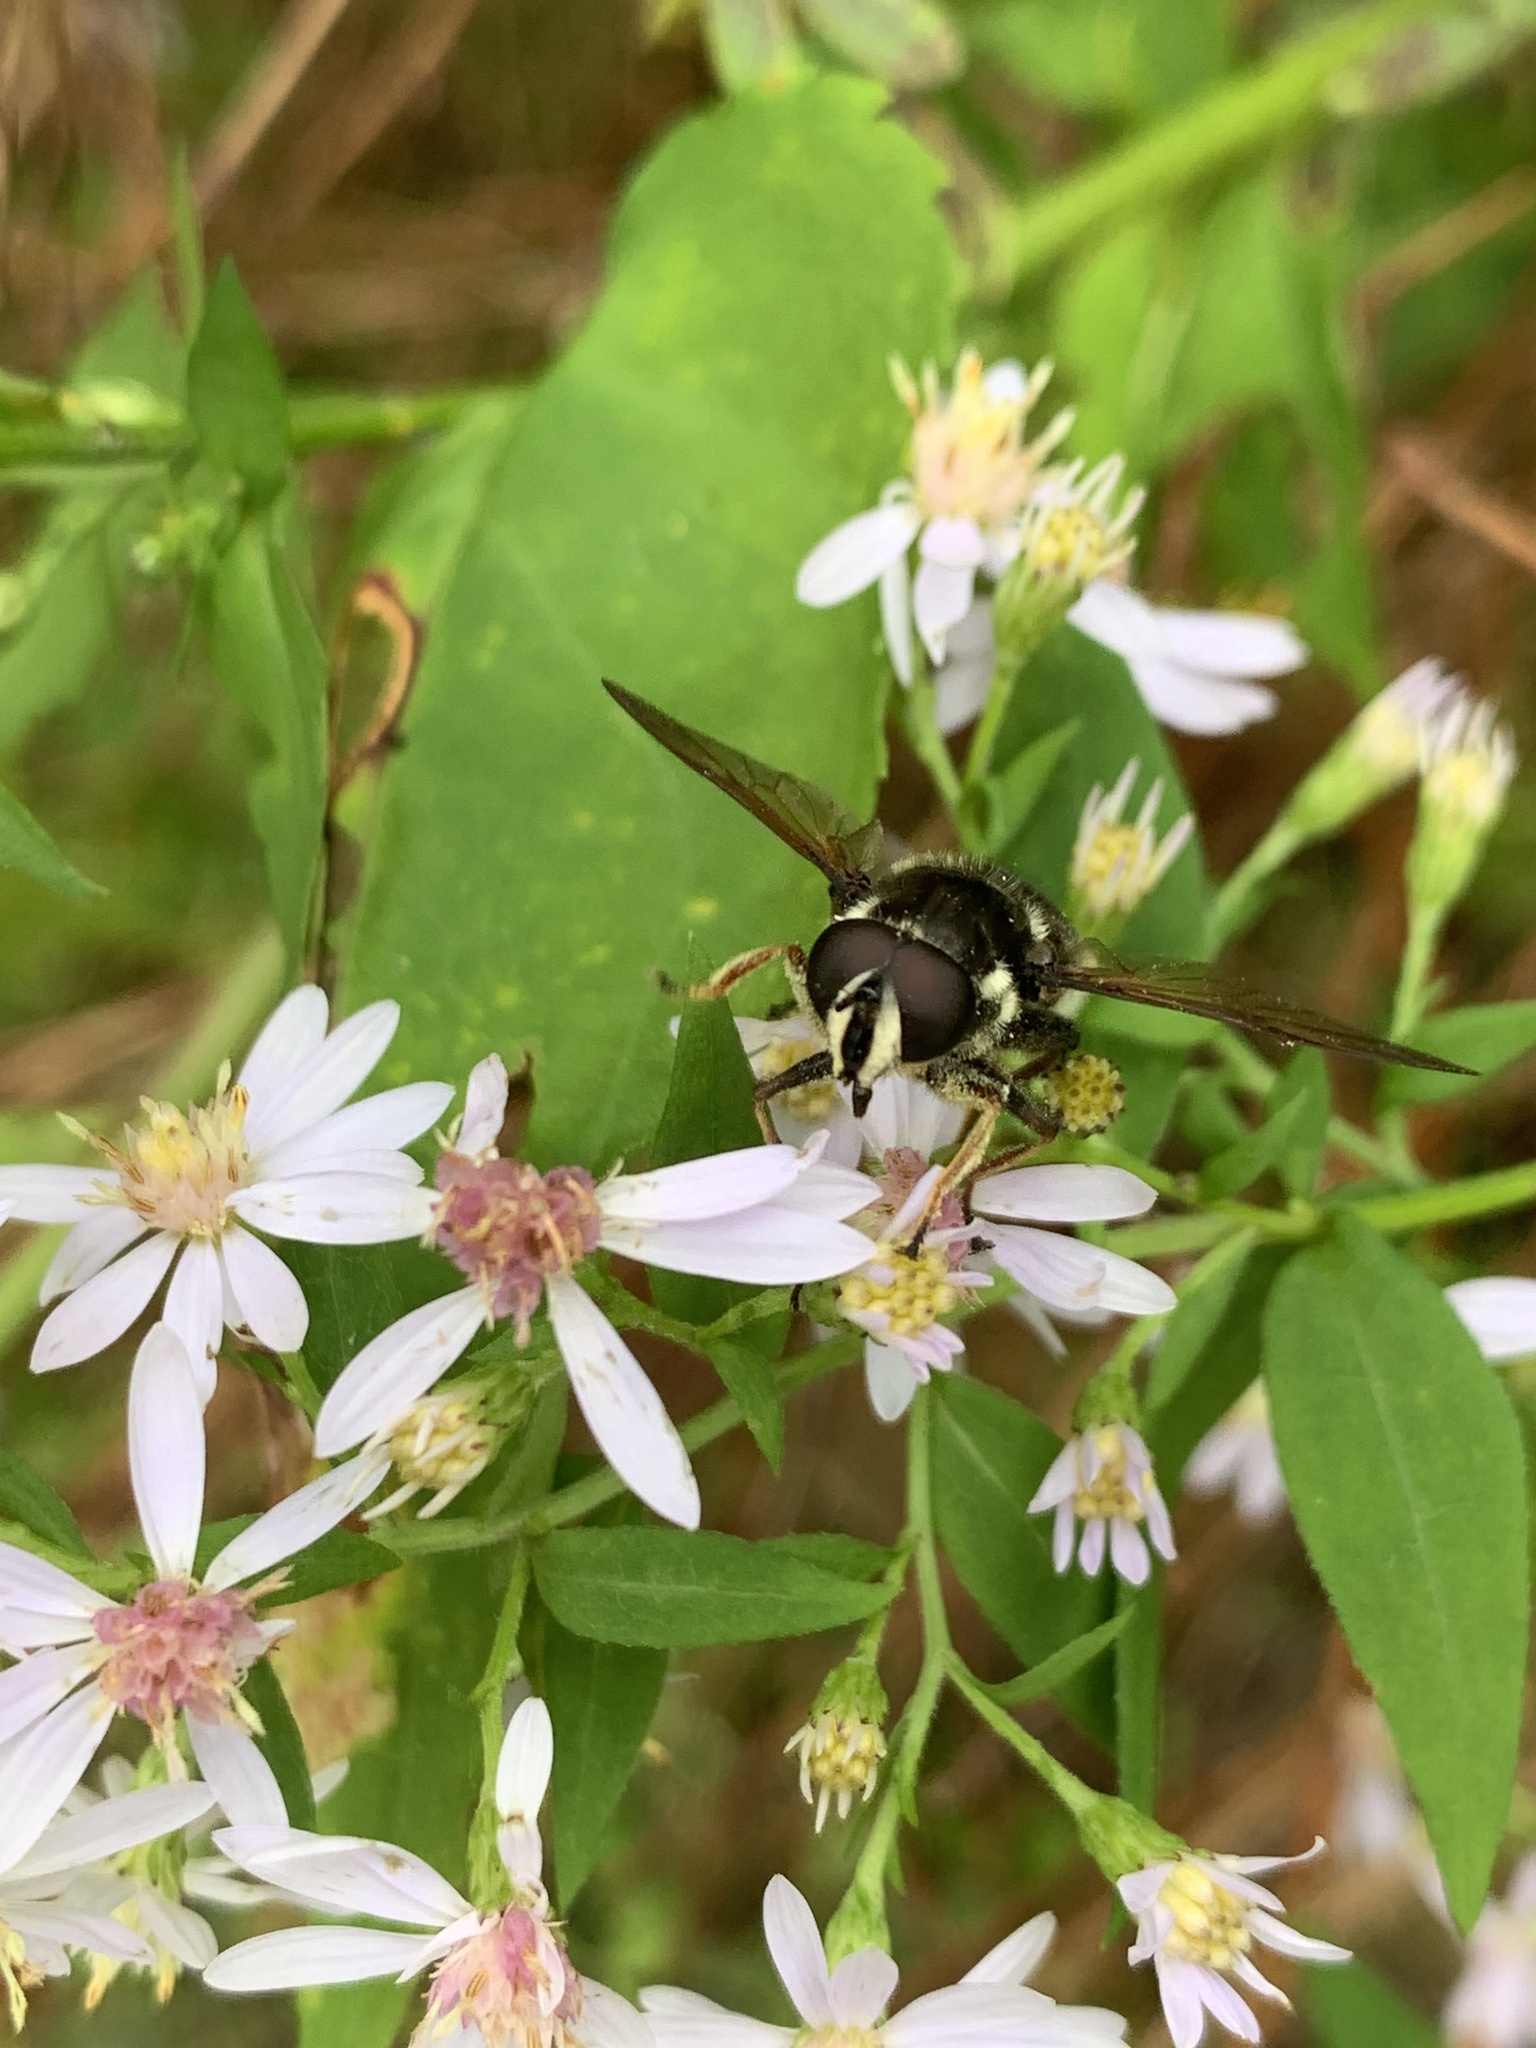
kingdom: Animalia
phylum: Arthropoda
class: Insecta
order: Diptera
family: Syrphidae
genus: Sericomyia
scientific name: Sericomyia militaris
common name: Narrow-banded pond fly
